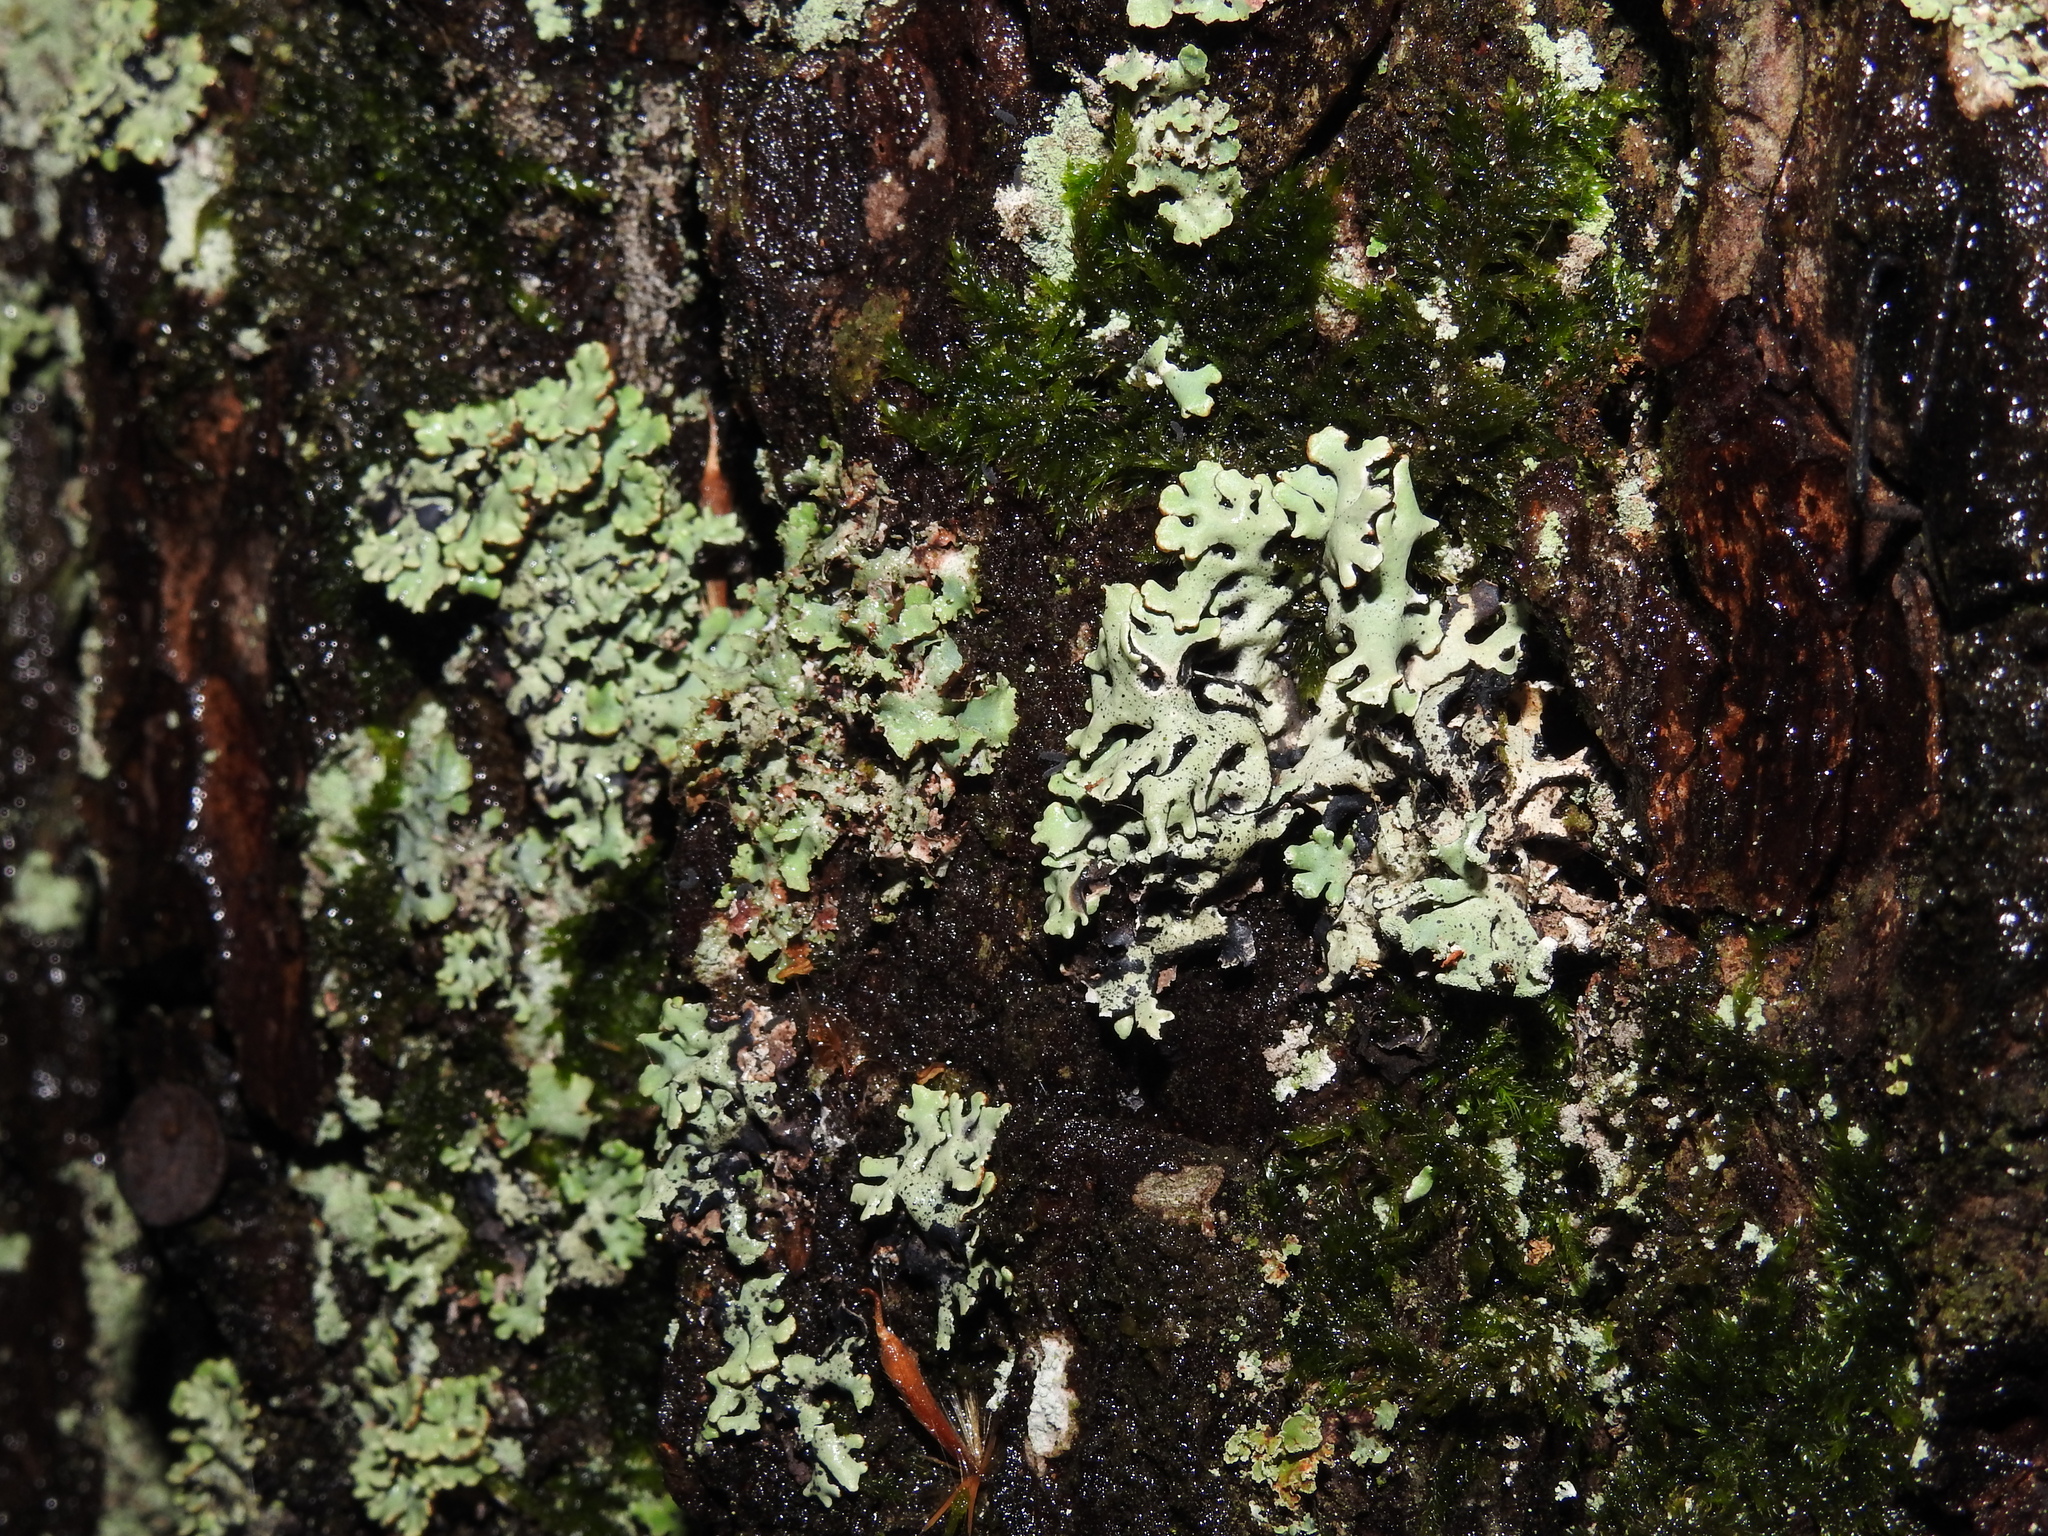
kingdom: Fungi
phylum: Ascomycota
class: Lecanoromycetes
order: Lecanorales
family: Parmeliaceae
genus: Hypogymnia
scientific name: Hypogymnia physodes
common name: Dark crottle
